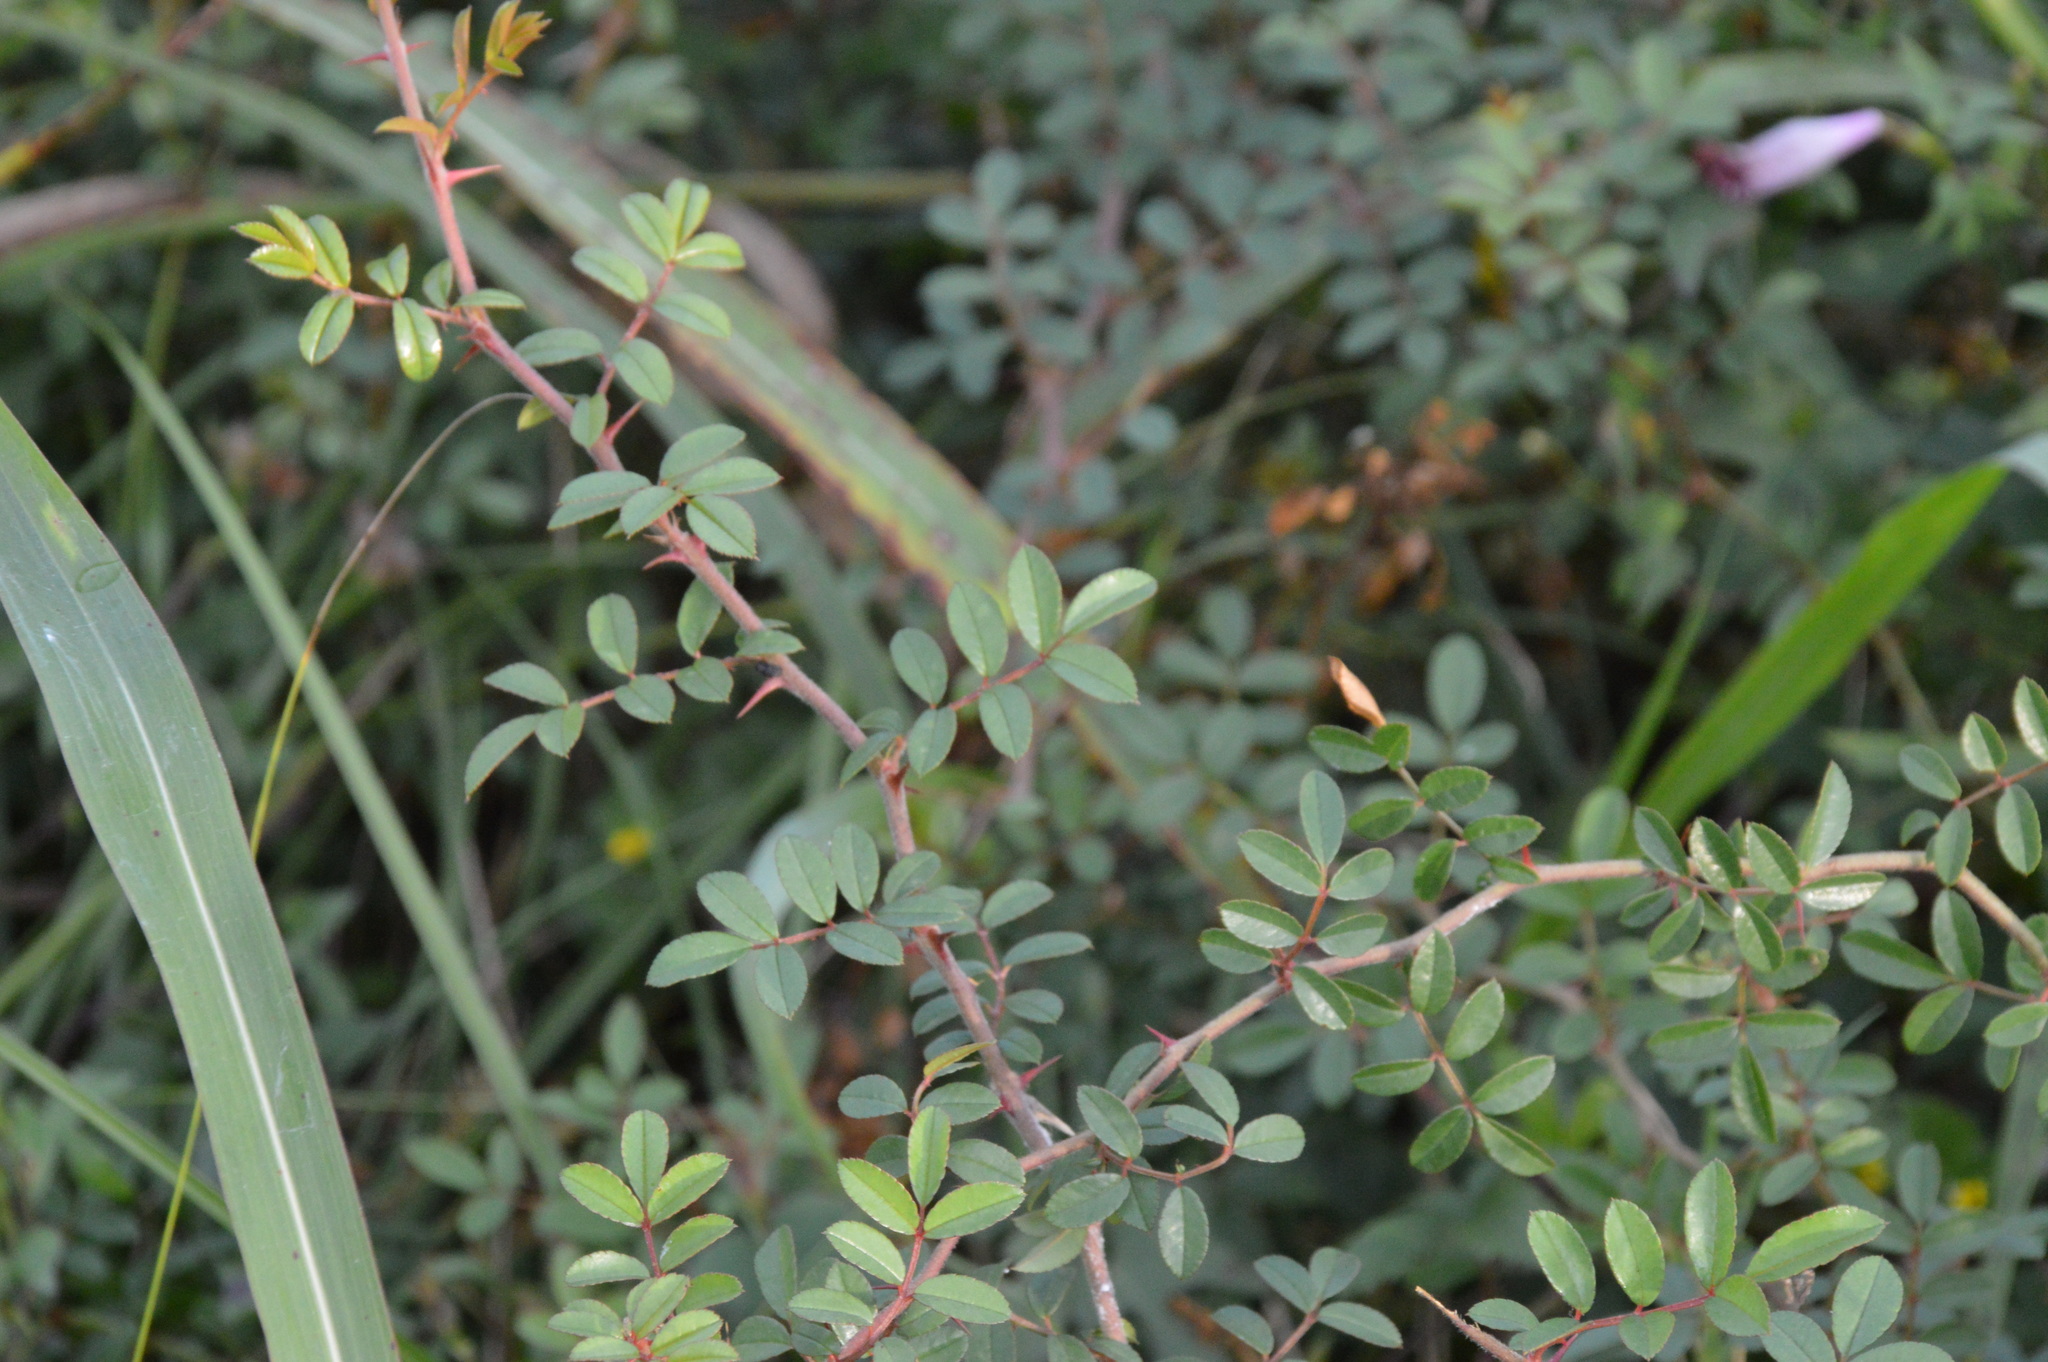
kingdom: Plantae
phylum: Tracheophyta
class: Magnoliopsida
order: Rosales
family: Rosaceae
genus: Rosa
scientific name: Rosa bracteata
